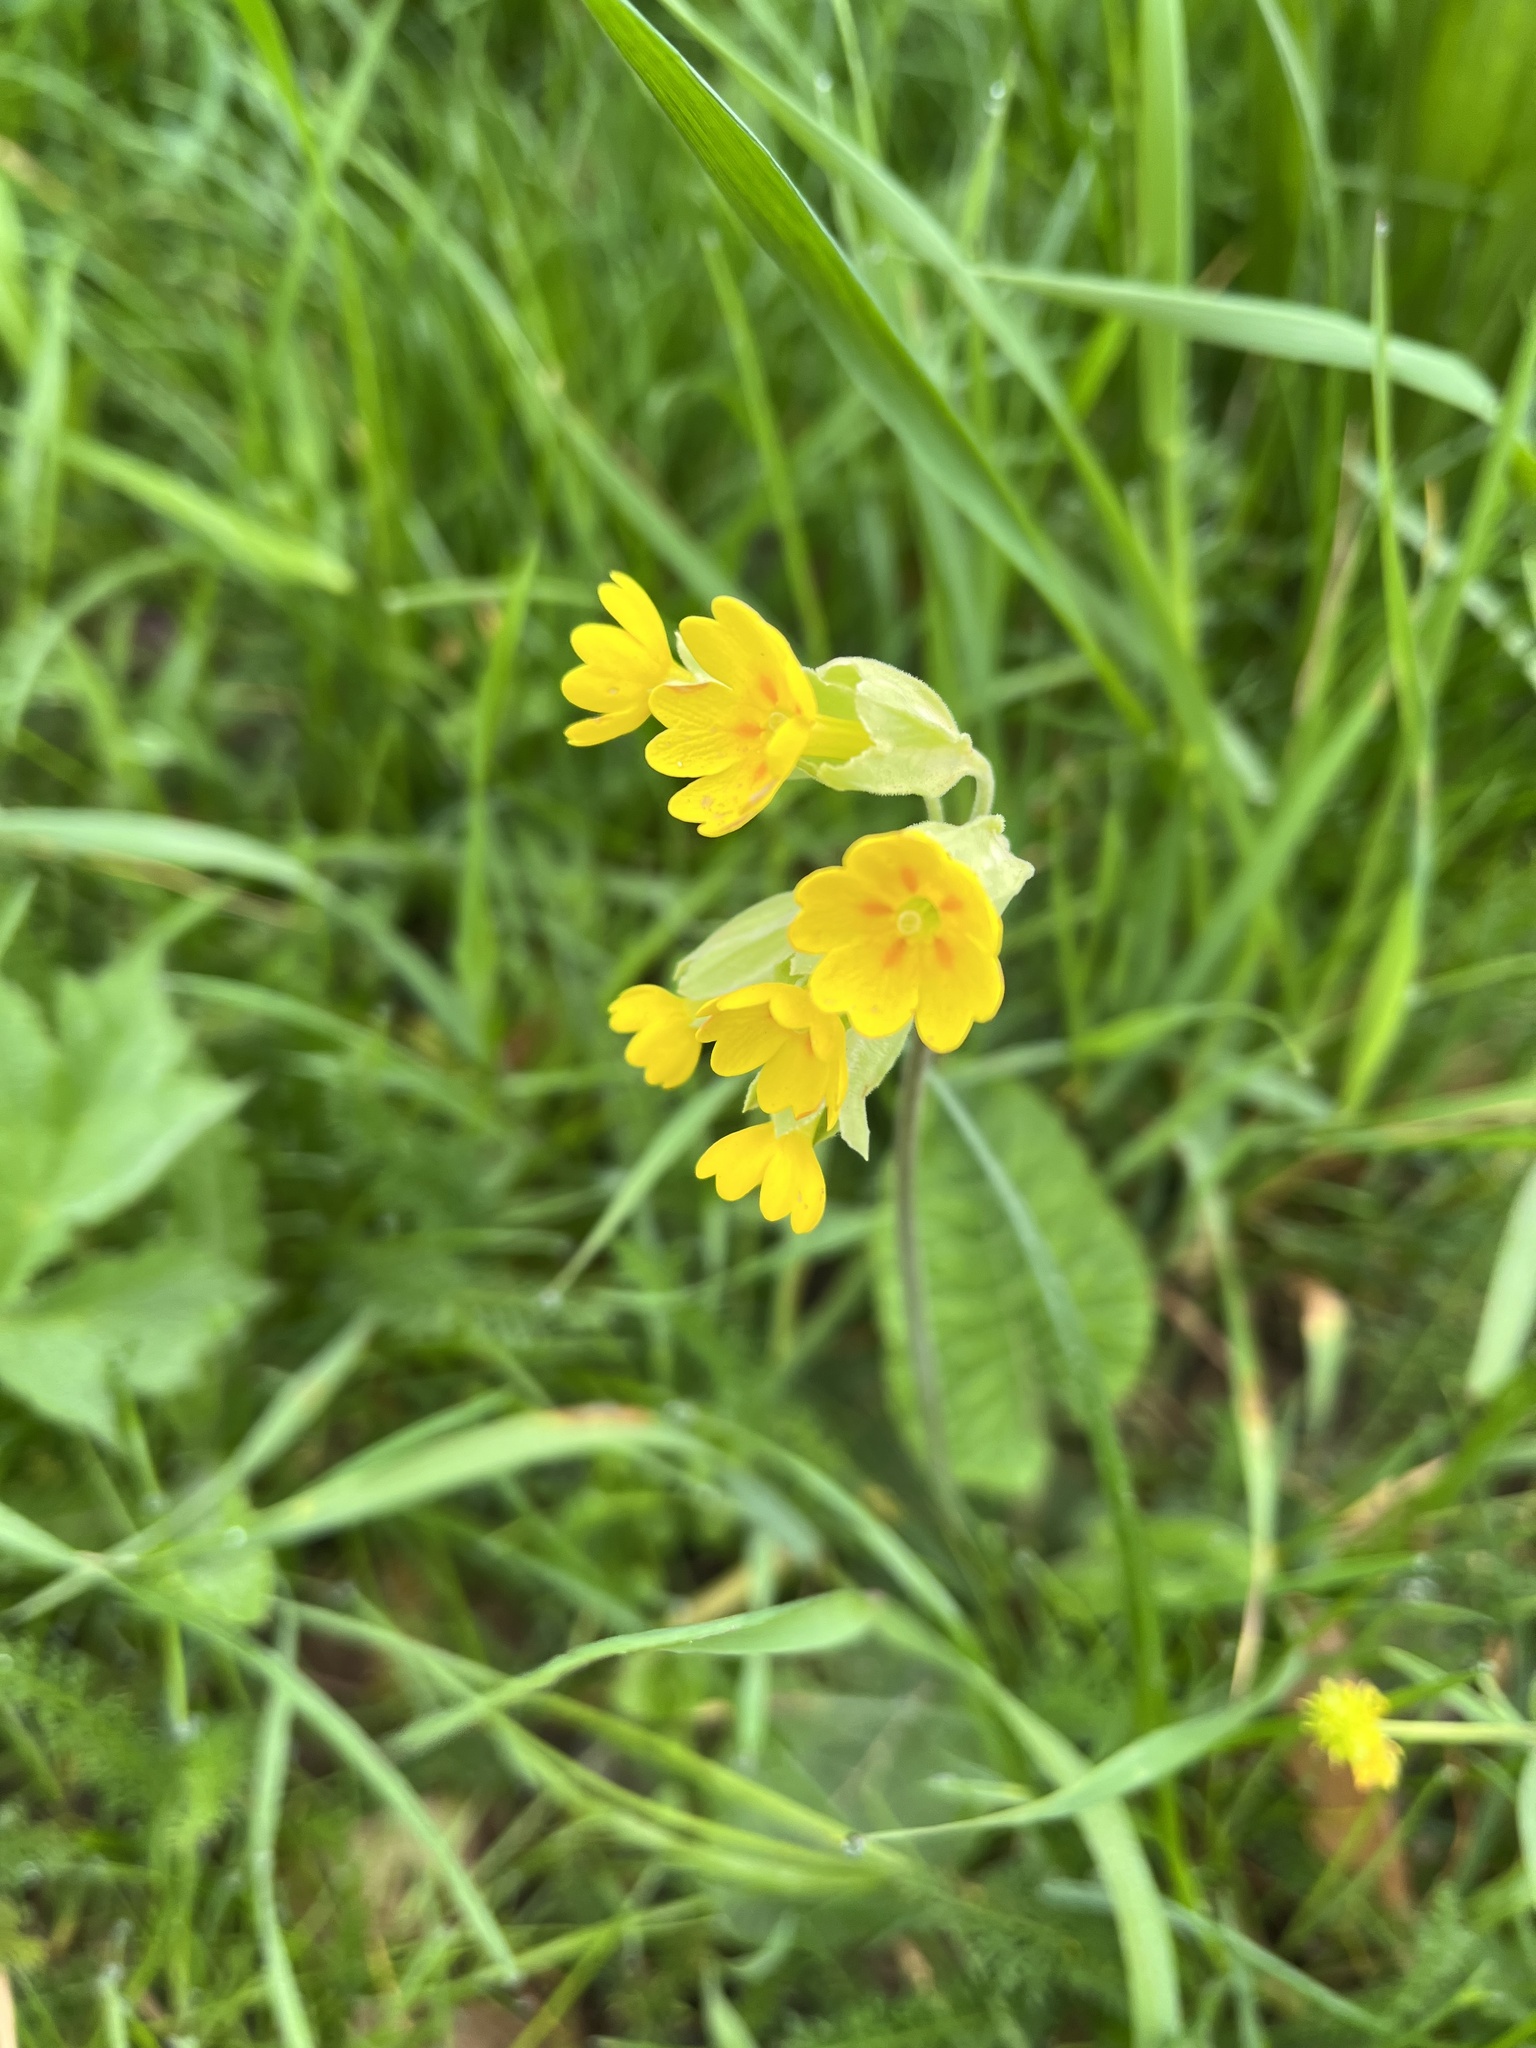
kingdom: Plantae
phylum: Tracheophyta
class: Magnoliopsida
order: Ericales
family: Primulaceae
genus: Primula
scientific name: Primula veris
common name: Cowslip
